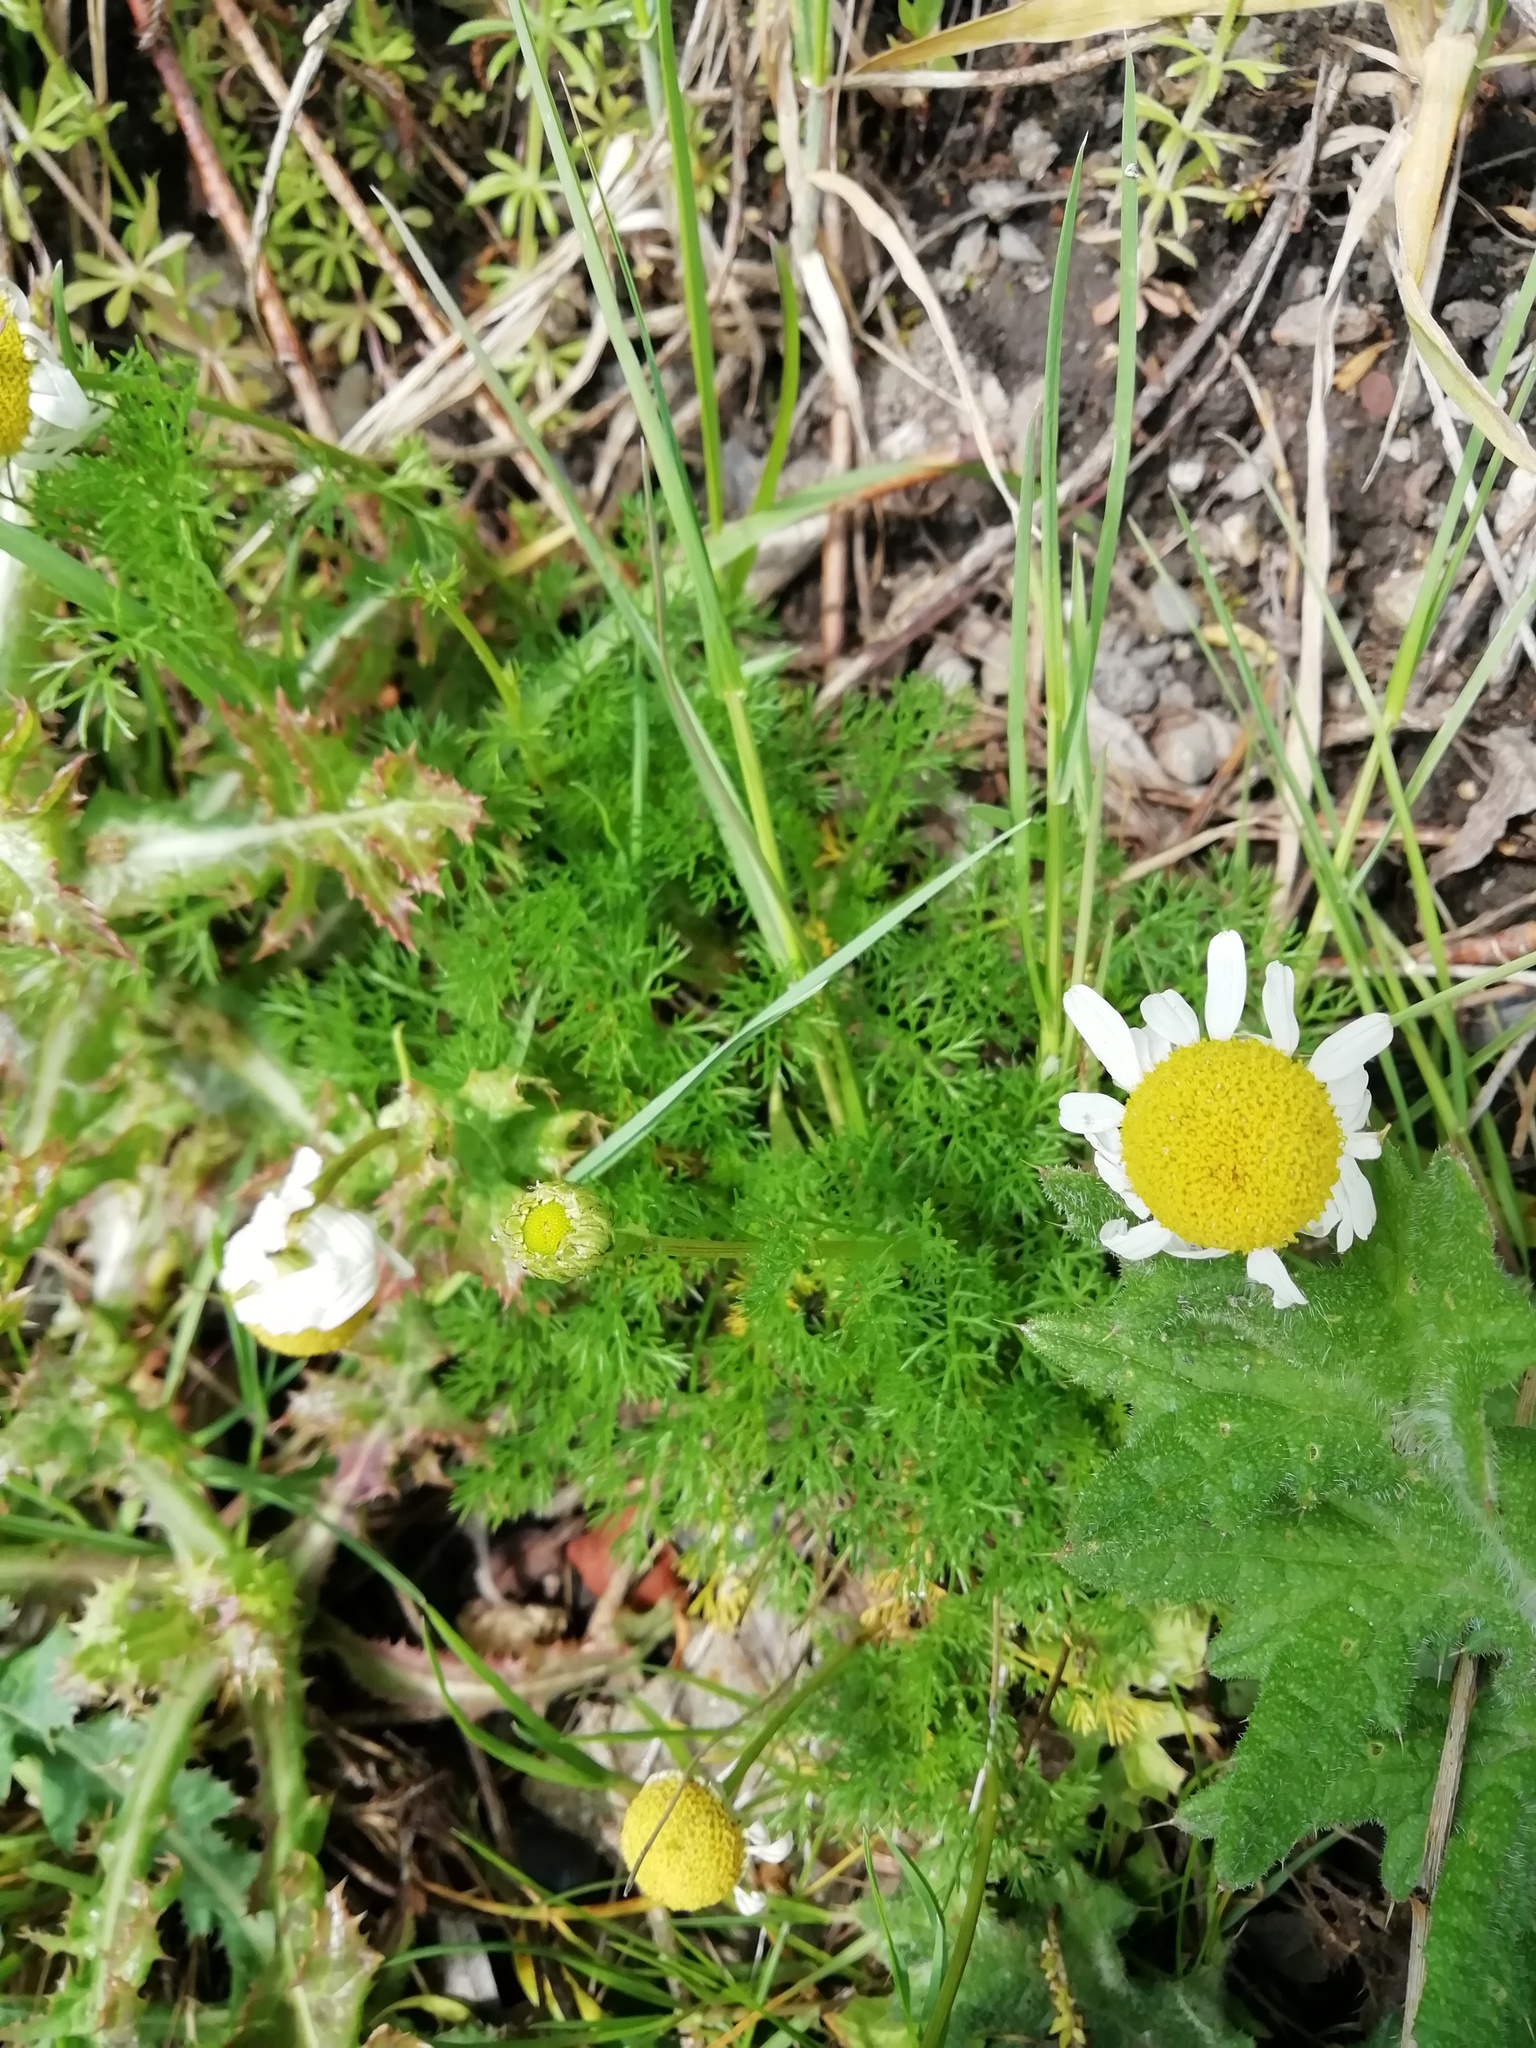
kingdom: Plantae
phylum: Tracheophyta
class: Magnoliopsida
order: Asterales
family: Asteraceae
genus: Tripleurospermum
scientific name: Tripleurospermum inodorum
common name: Scentless mayweed
